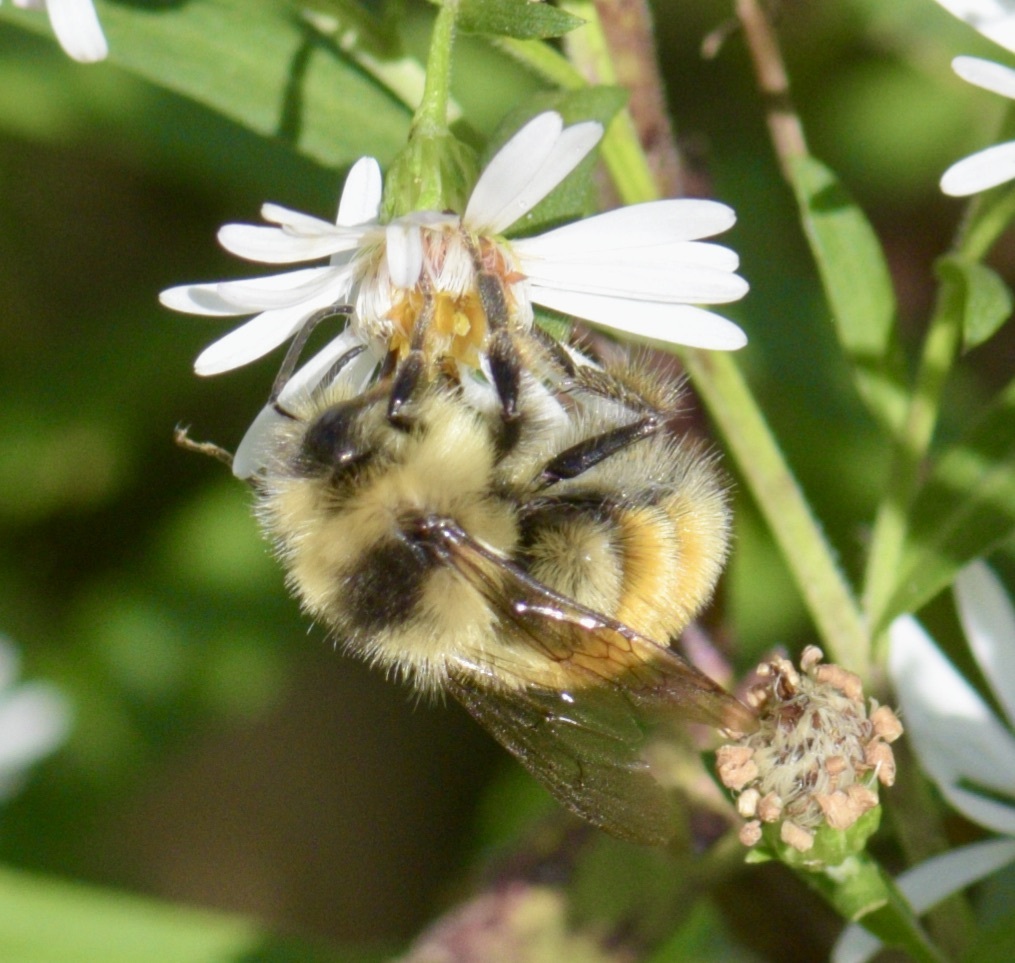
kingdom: Animalia
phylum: Arthropoda
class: Insecta
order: Hymenoptera
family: Apidae
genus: Bombus
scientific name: Bombus ternarius
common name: Tri-colored bumble bee
